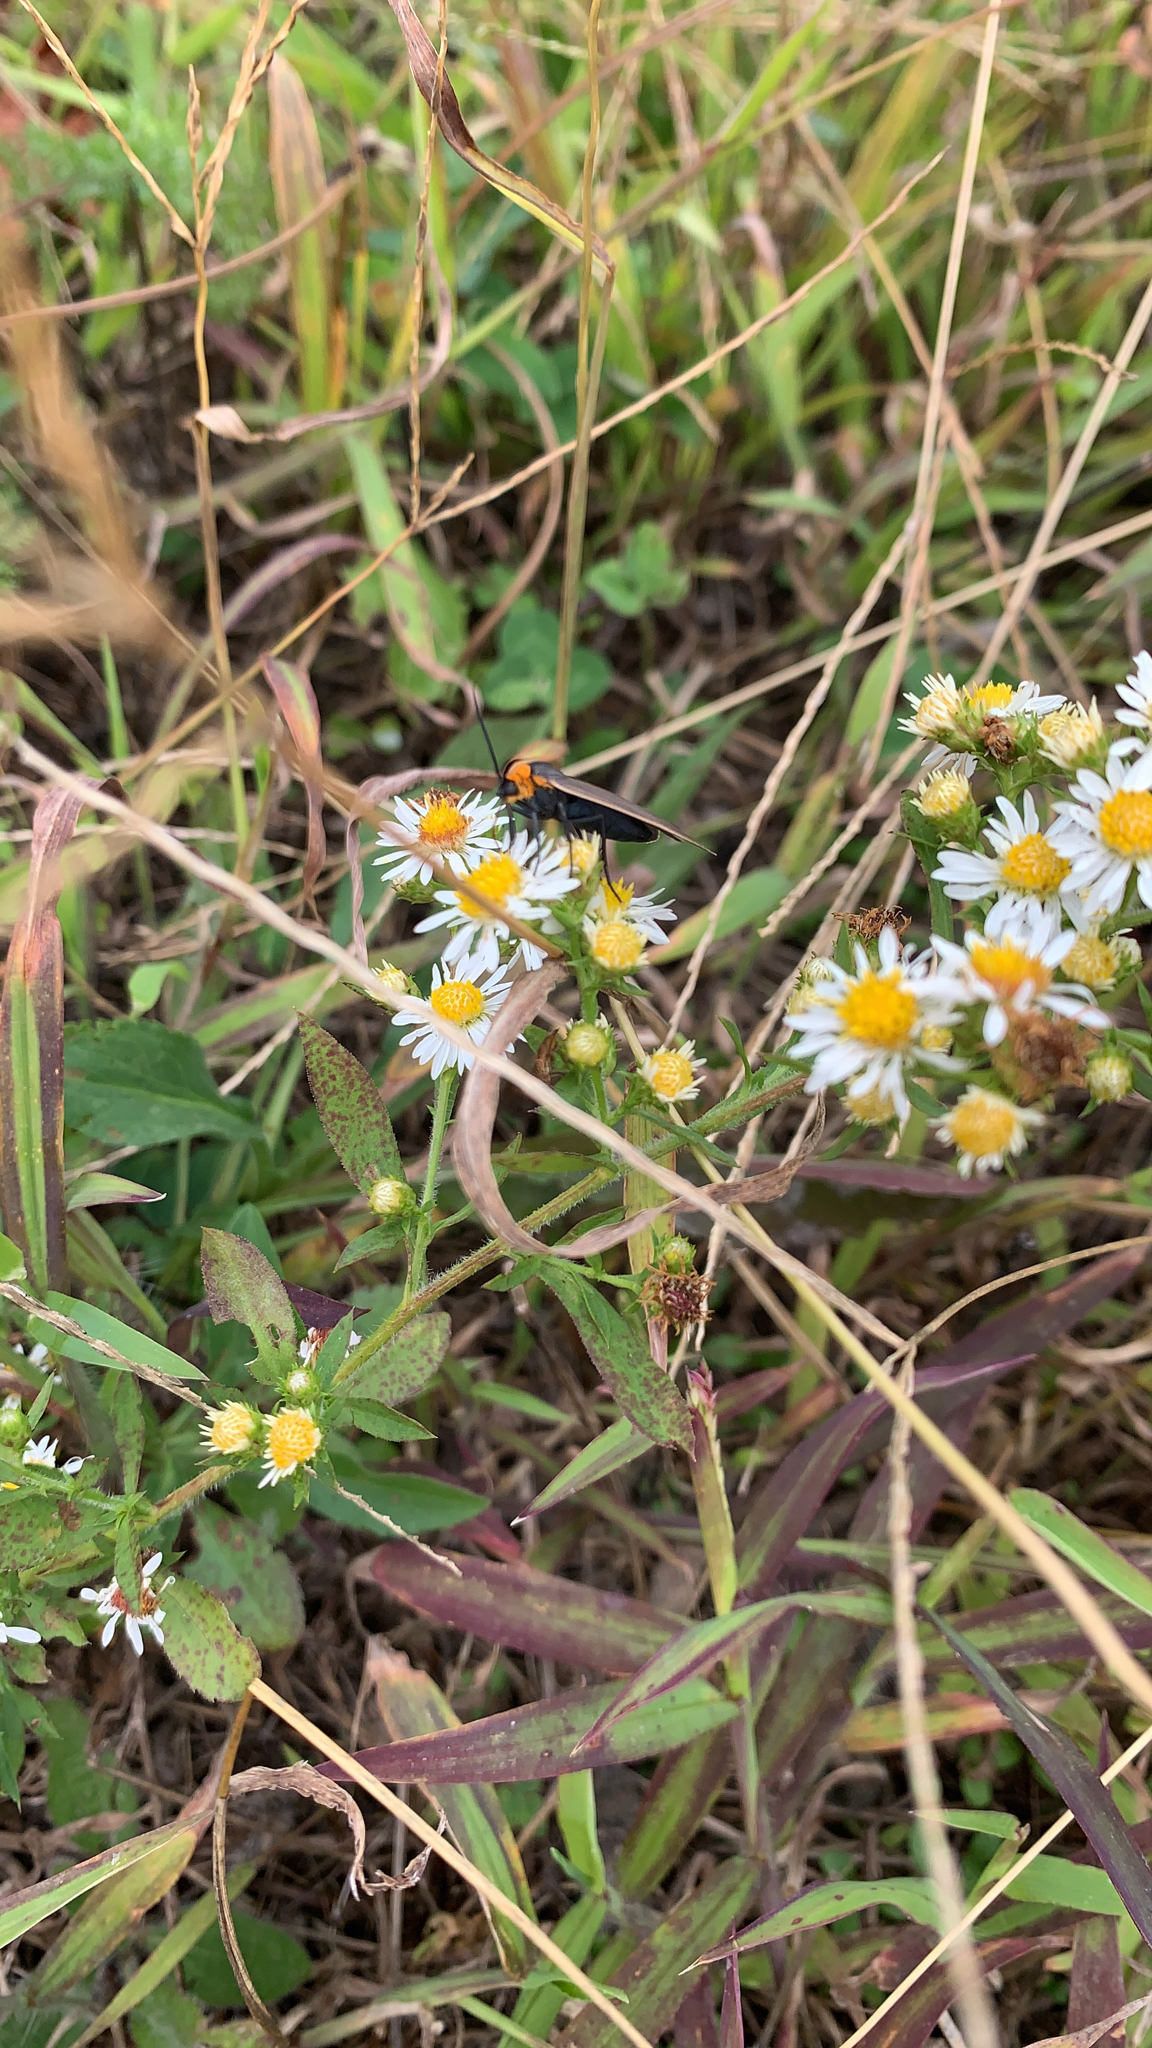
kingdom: Animalia
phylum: Arthropoda
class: Insecta
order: Lepidoptera
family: Erebidae
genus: Cisseps
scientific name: Cisseps fulvicollis
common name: Yellow-collared scape moth
